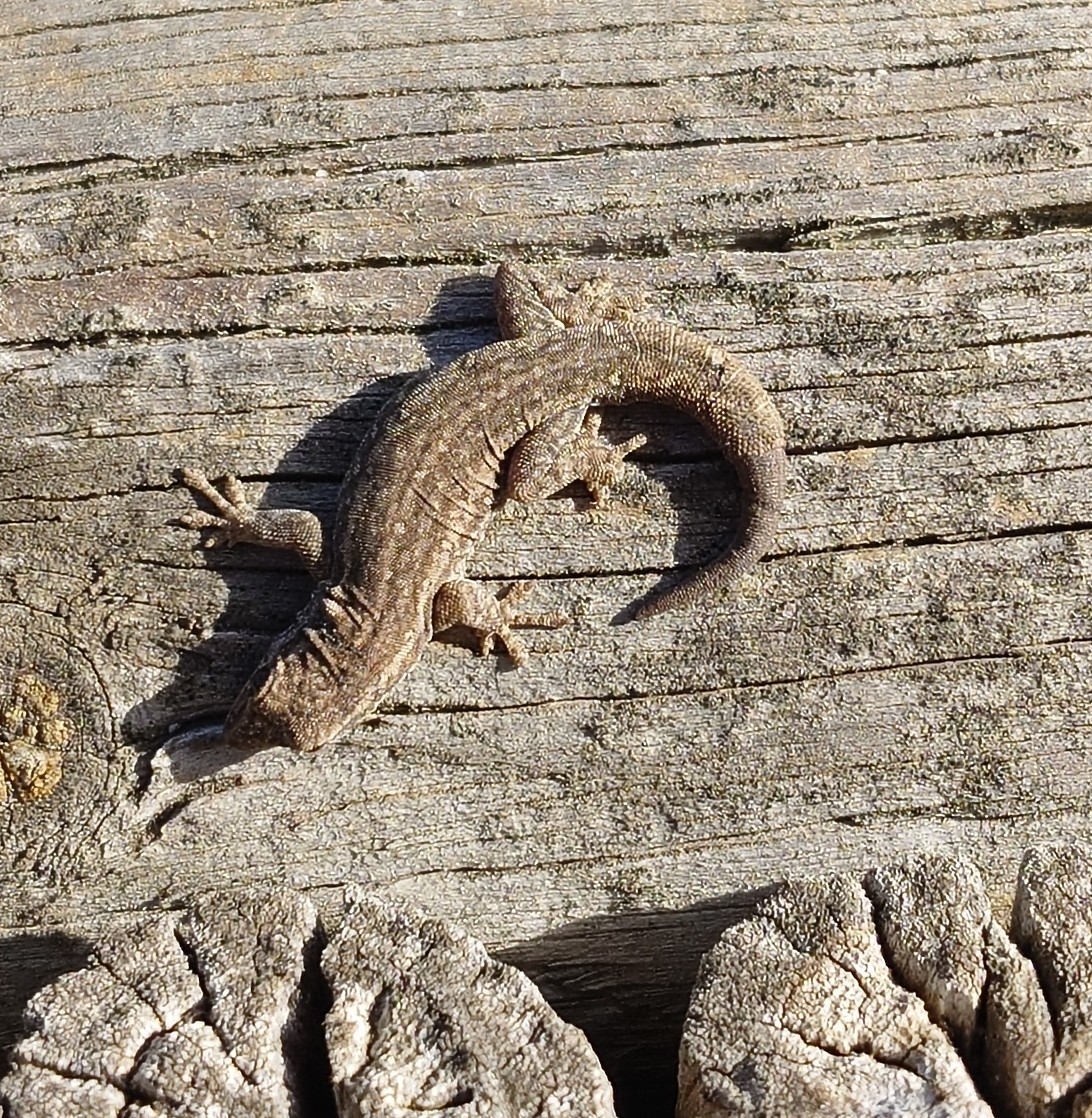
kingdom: Animalia
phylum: Chordata
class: Squamata
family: Gekkonidae
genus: Lygodactylus
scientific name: Lygodactylus capensis
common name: Cape dwarf gecko
